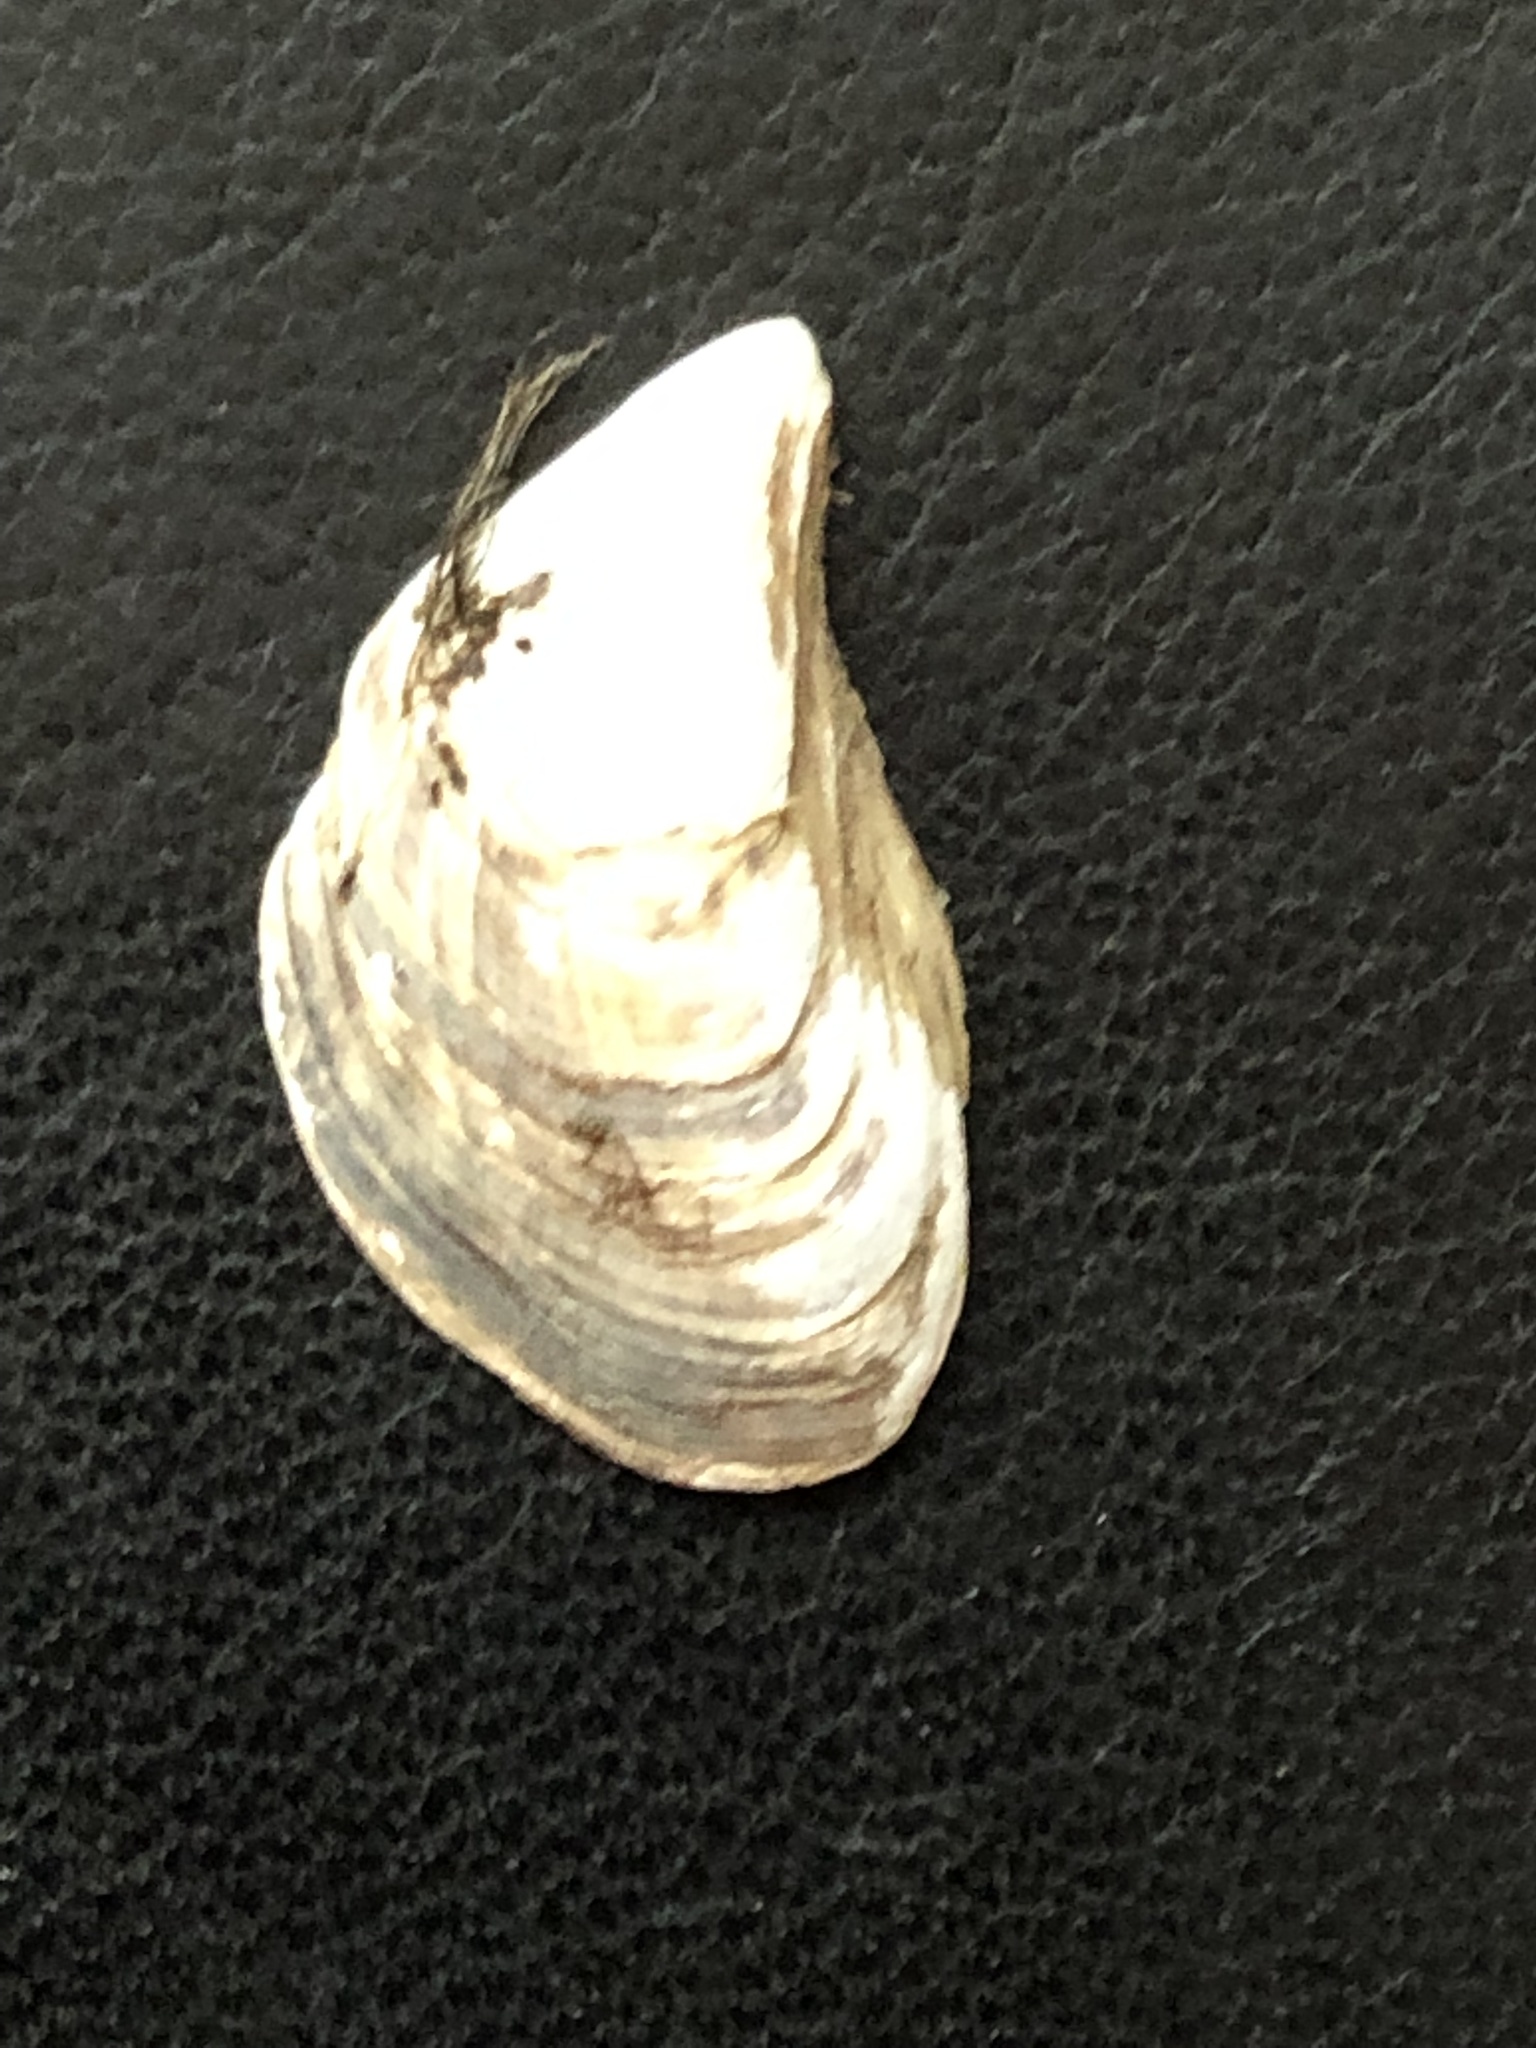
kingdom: Animalia
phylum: Mollusca
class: Bivalvia
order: Myida
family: Dreissenidae
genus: Dreissena
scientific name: Dreissena bugensis
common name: Quagga mussel
